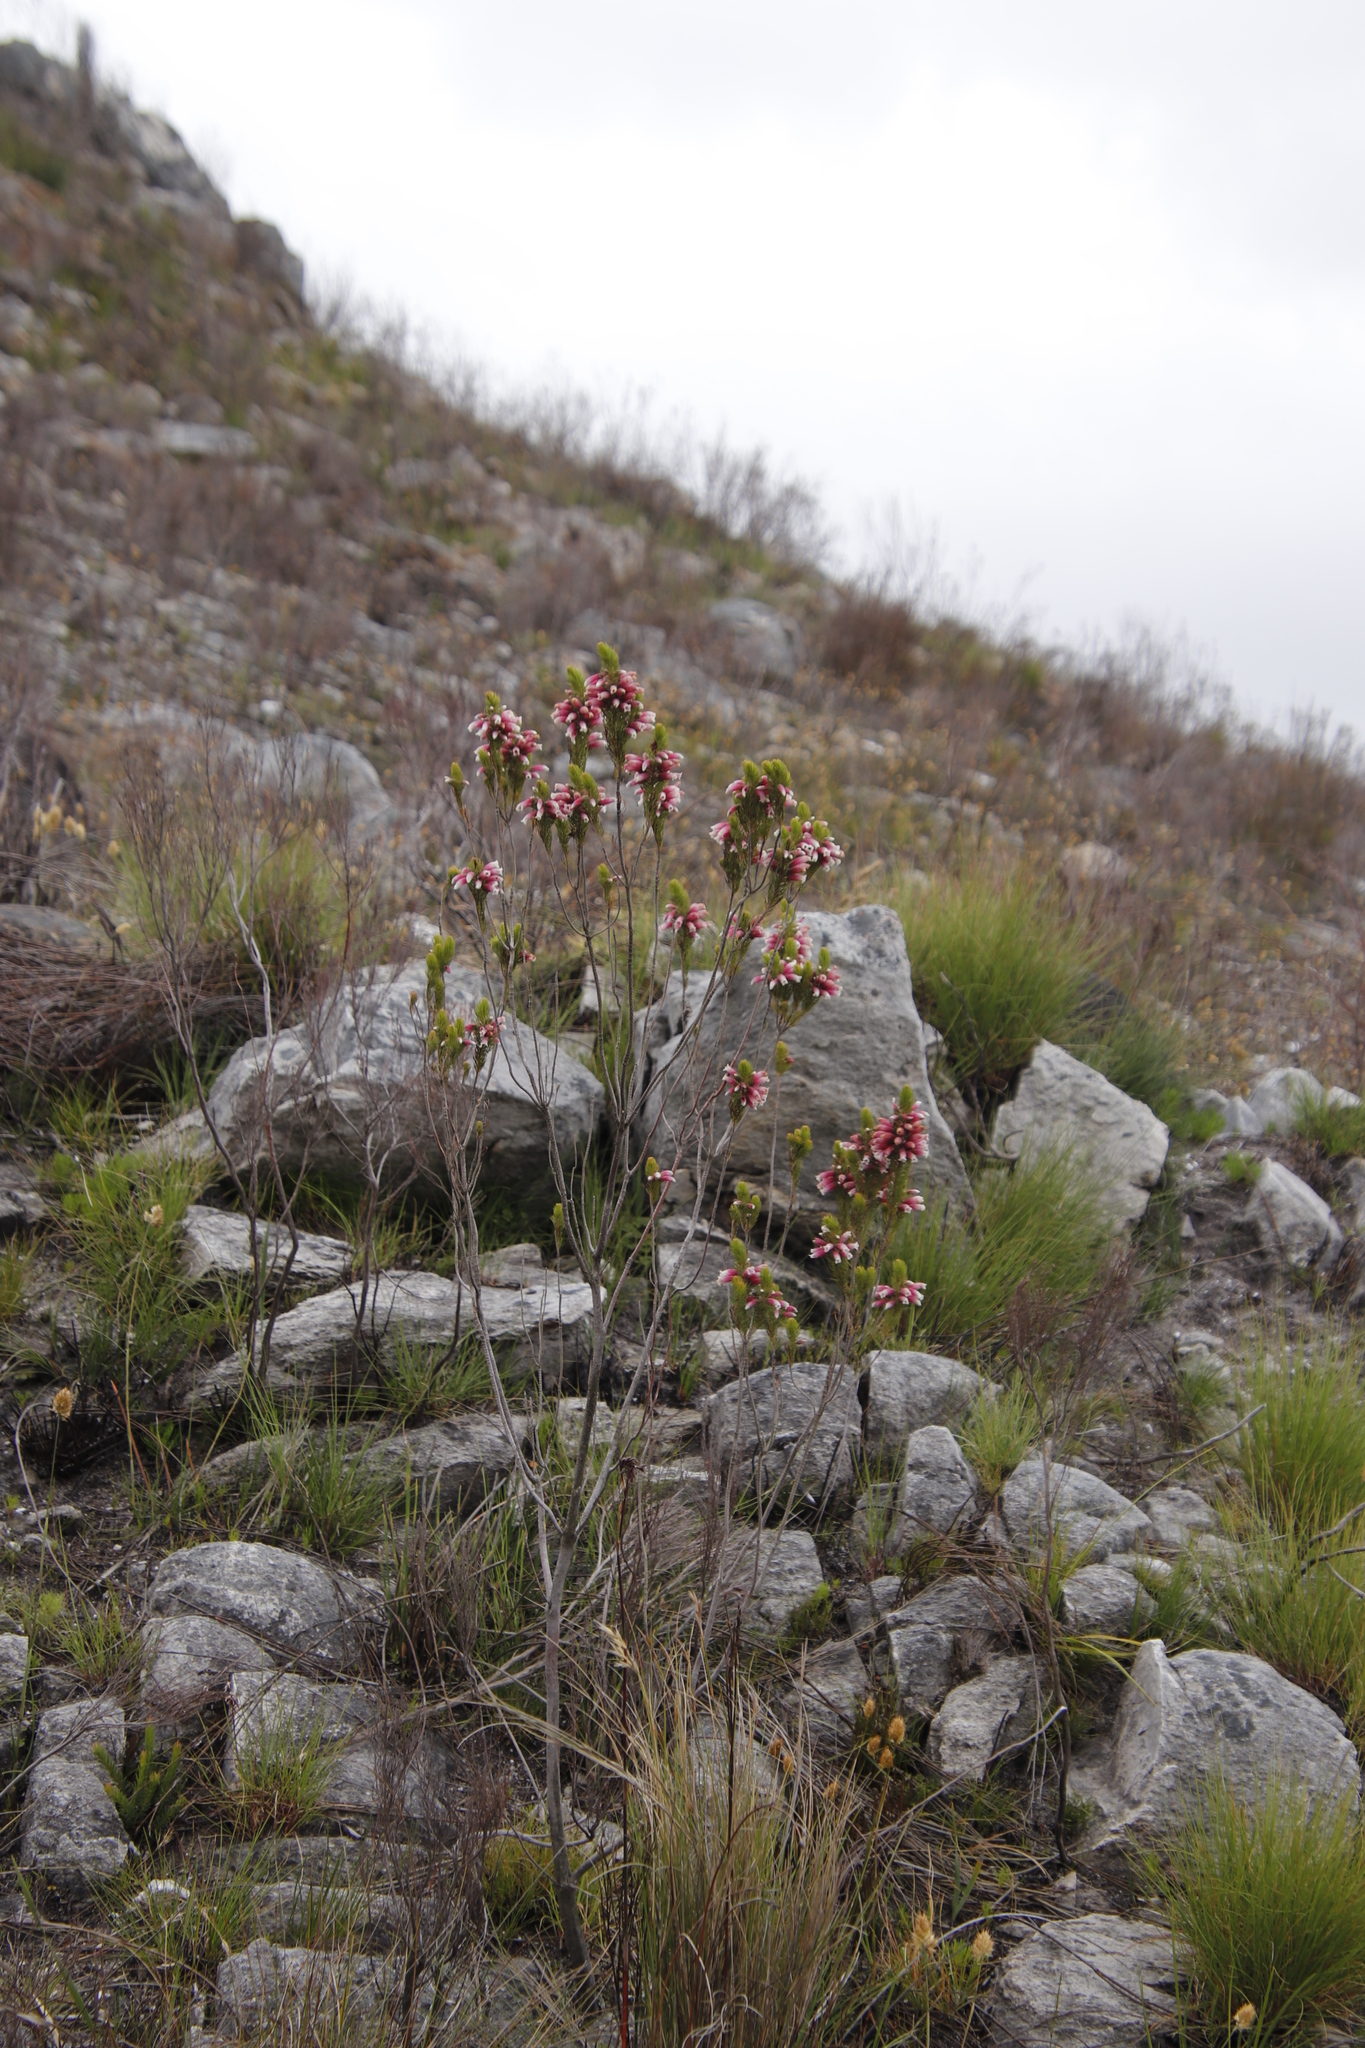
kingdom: Plantae
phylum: Tracheophyta
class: Magnoliopsida
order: Ericales
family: Ericaceae
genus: Erica
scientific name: Erica viscaria
